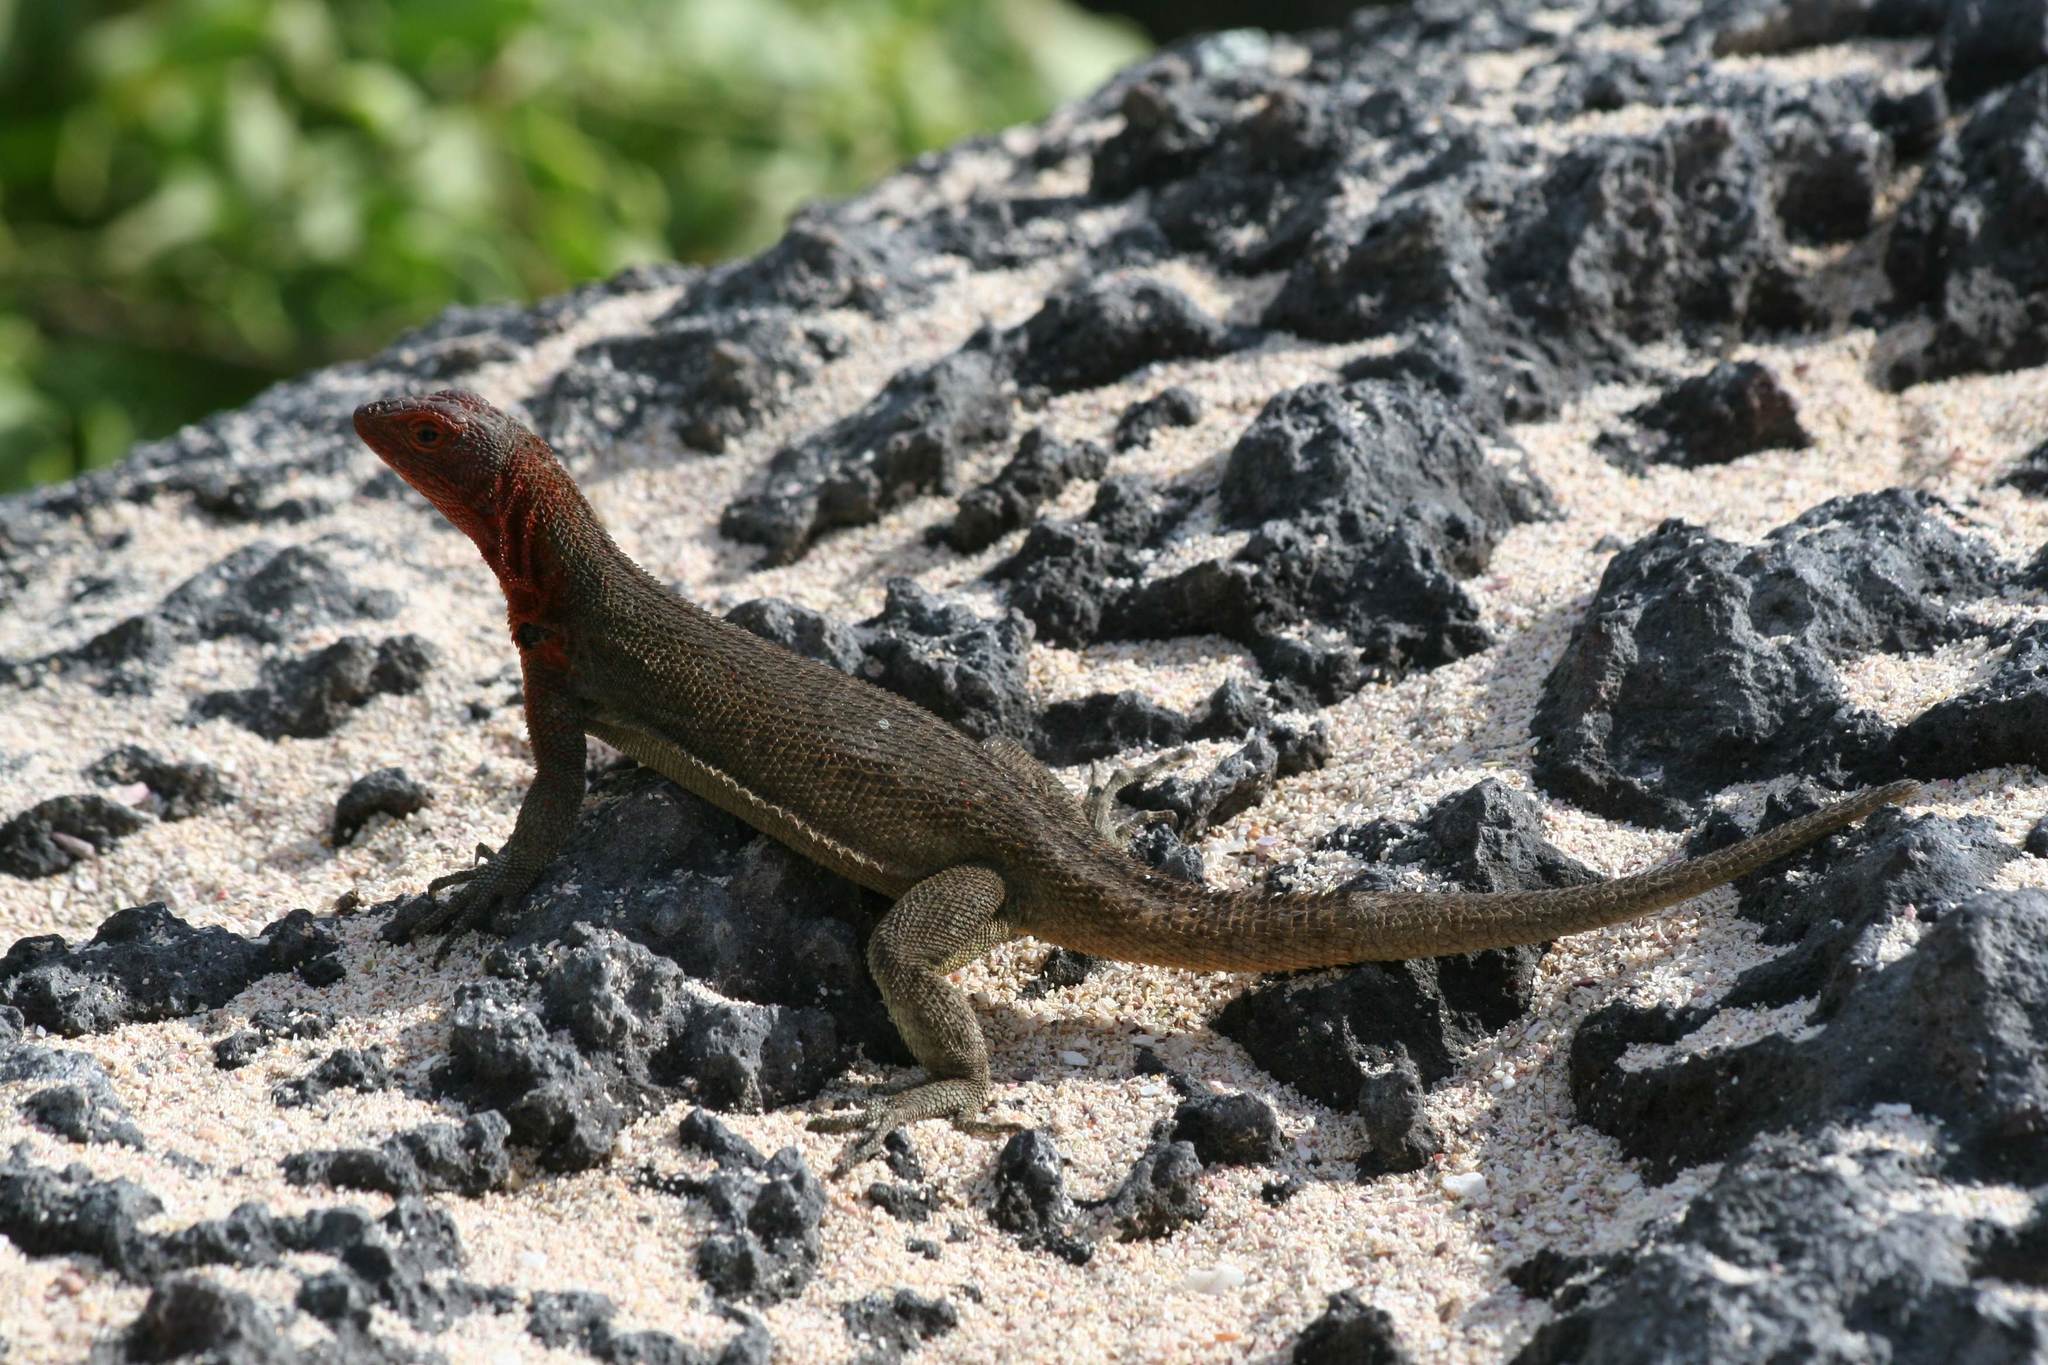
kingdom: Animalia
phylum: Chordata
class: Squamata
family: Tropiduridae
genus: Microlophus
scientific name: Microlophus albemarlensis
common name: Galapagos lava lizard
